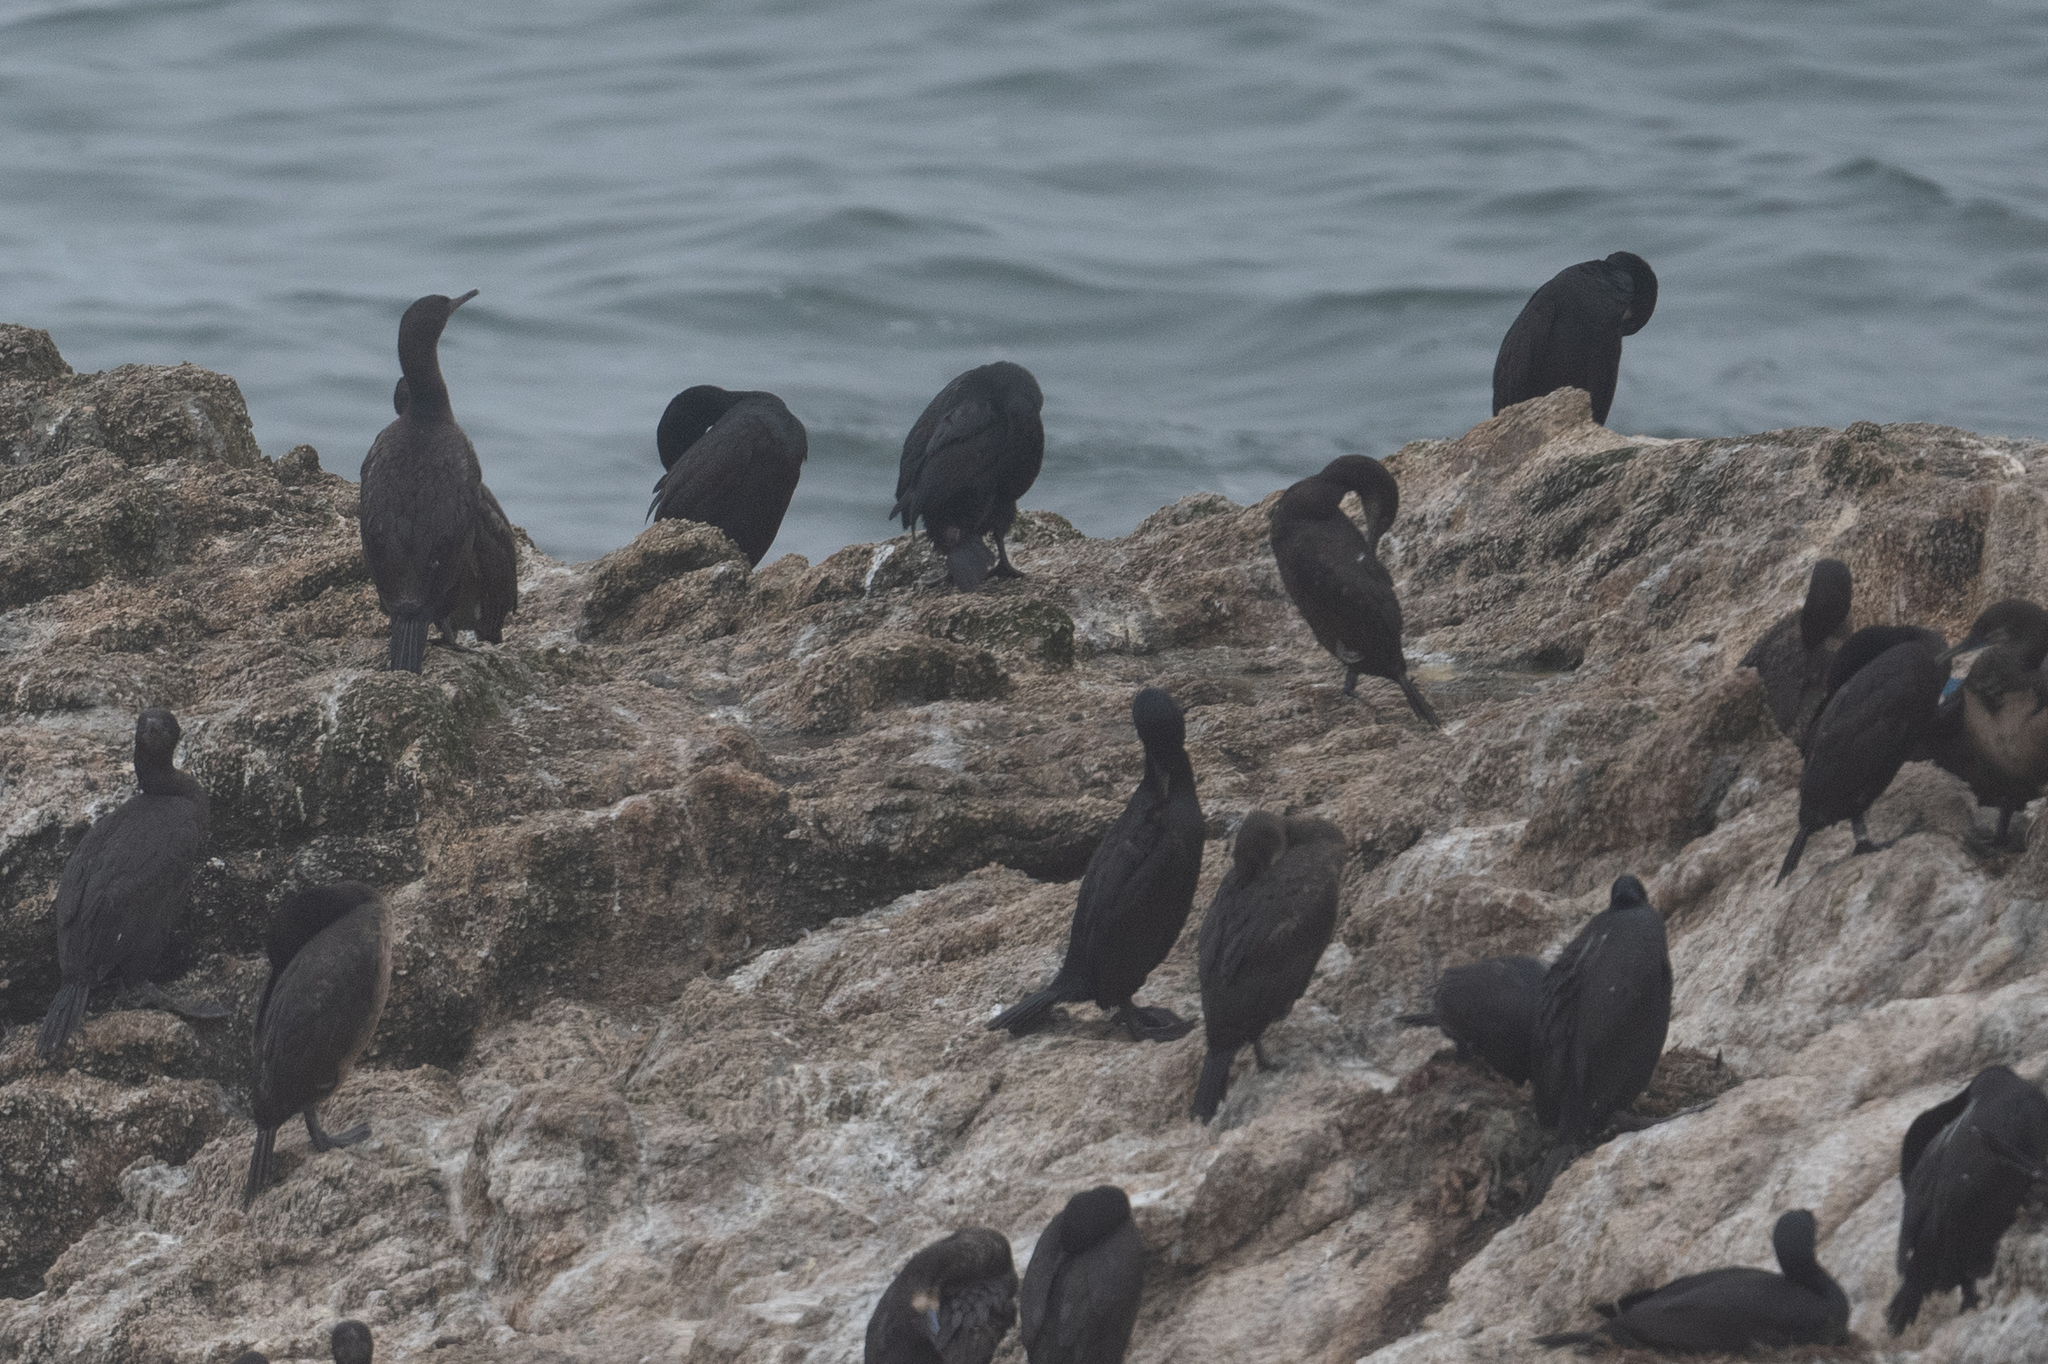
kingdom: Animalia
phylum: Chordata
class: Aves
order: Suliformes
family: Phalacrocoracidae
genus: Urile
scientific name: Urile penicillatus
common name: Brandt's cormorant
